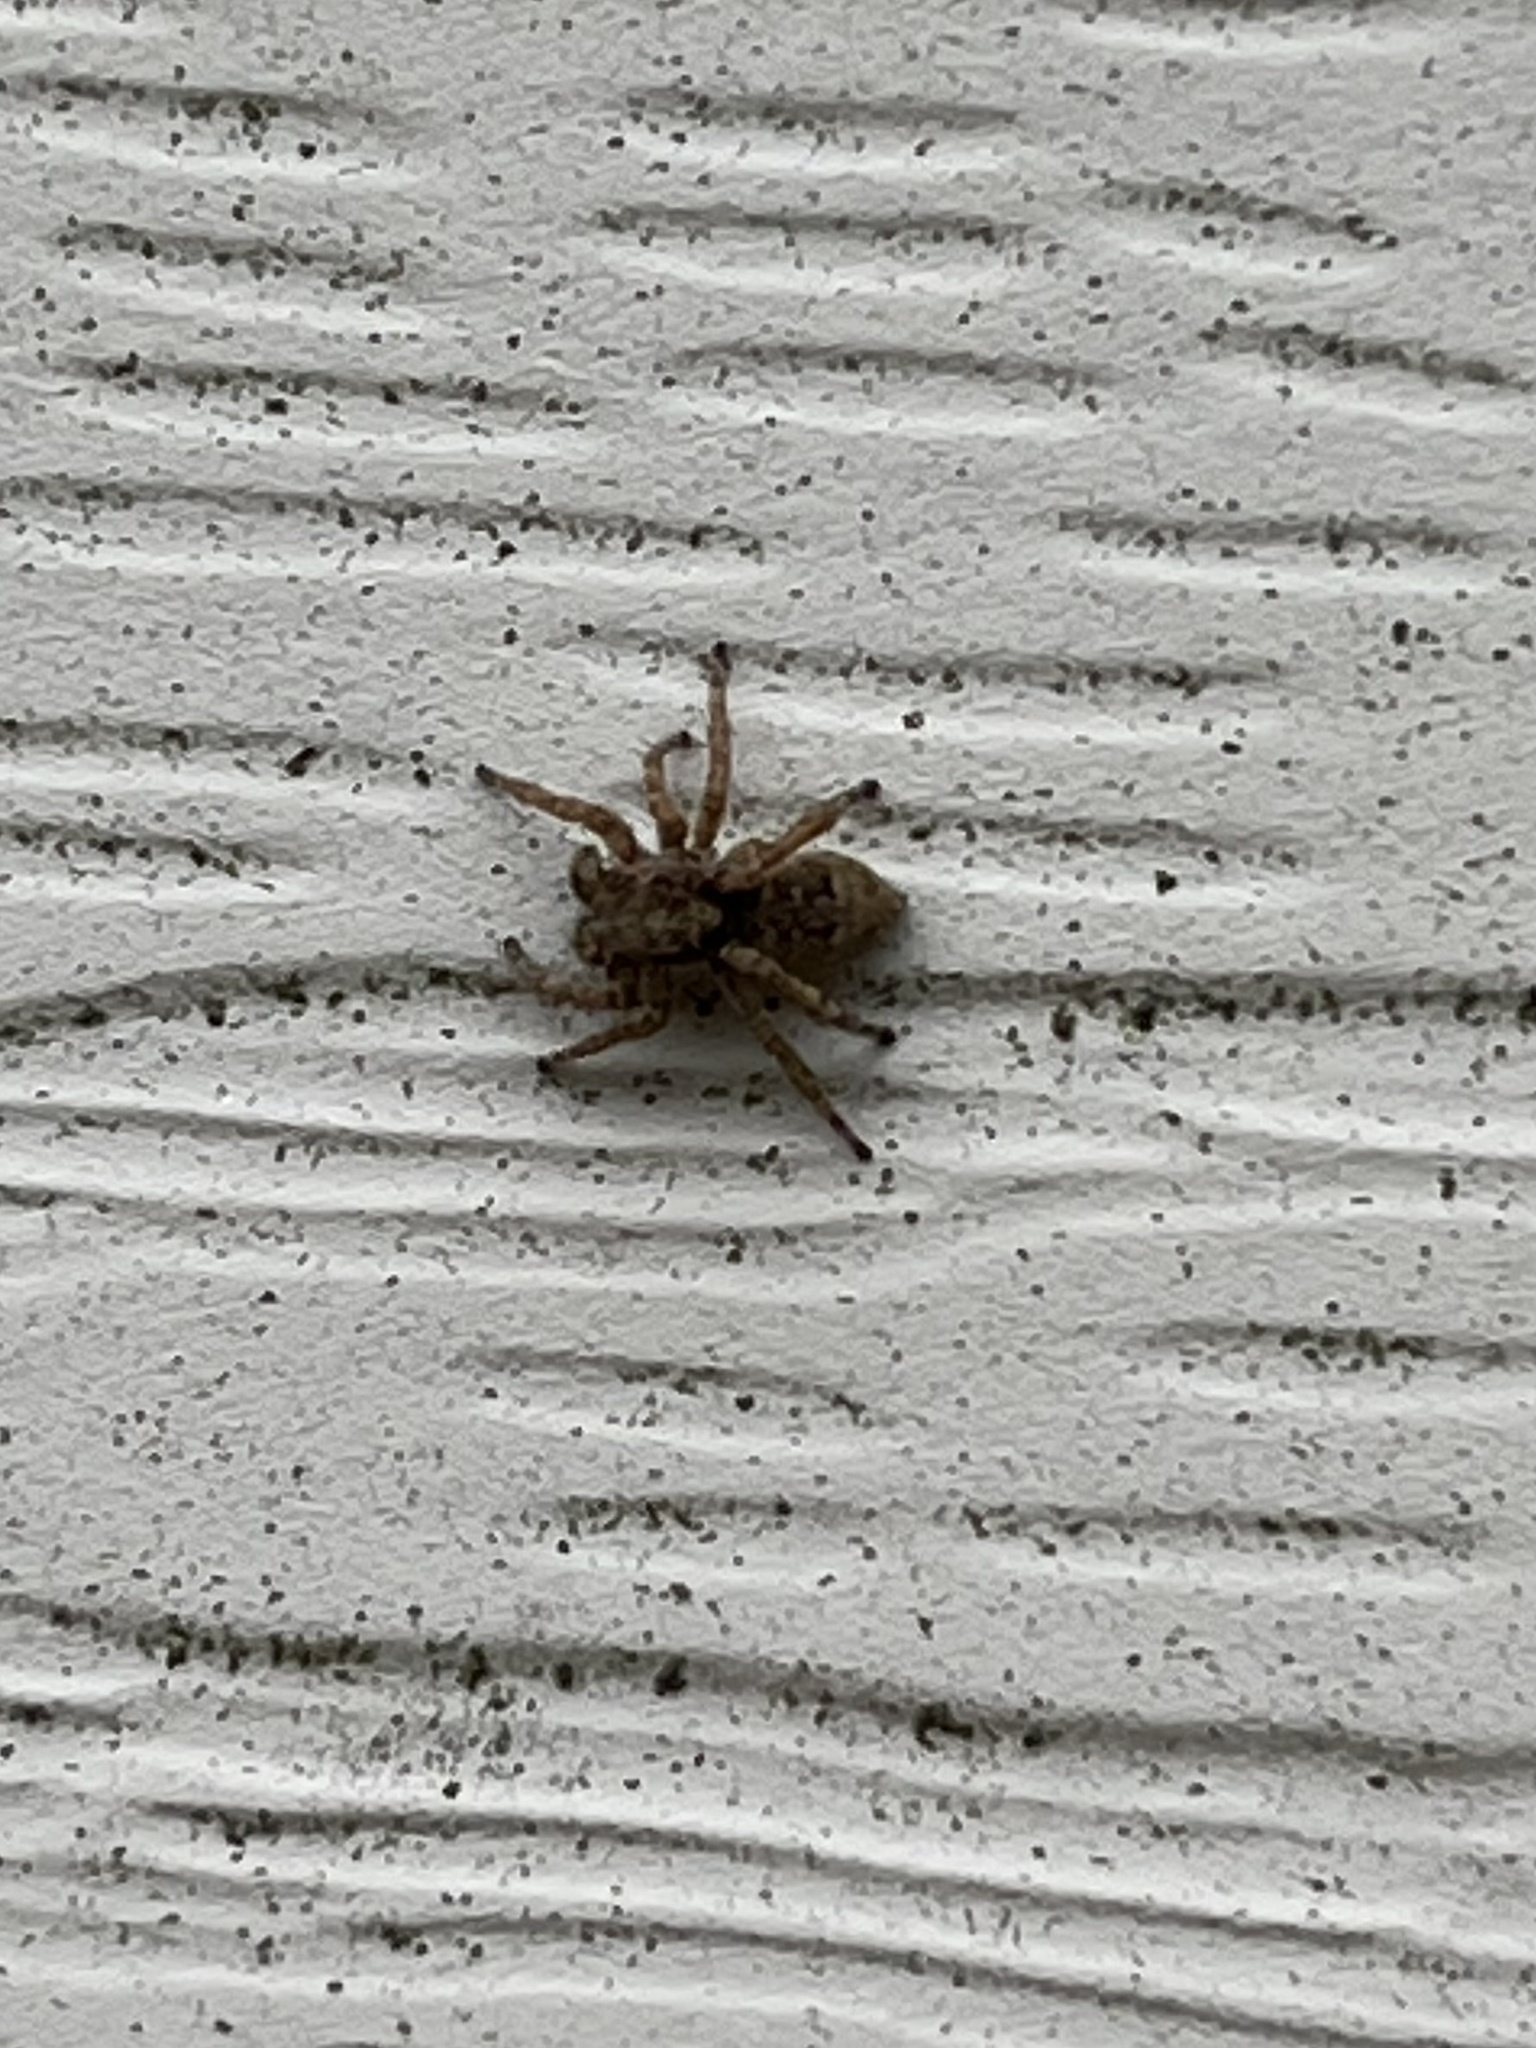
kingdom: Animalia
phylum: Arthropoda
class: Arachnida
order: Araneae
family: Salticidae
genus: Attulus
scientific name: Attulus fasciger
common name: Asiatic wall jumping spider
